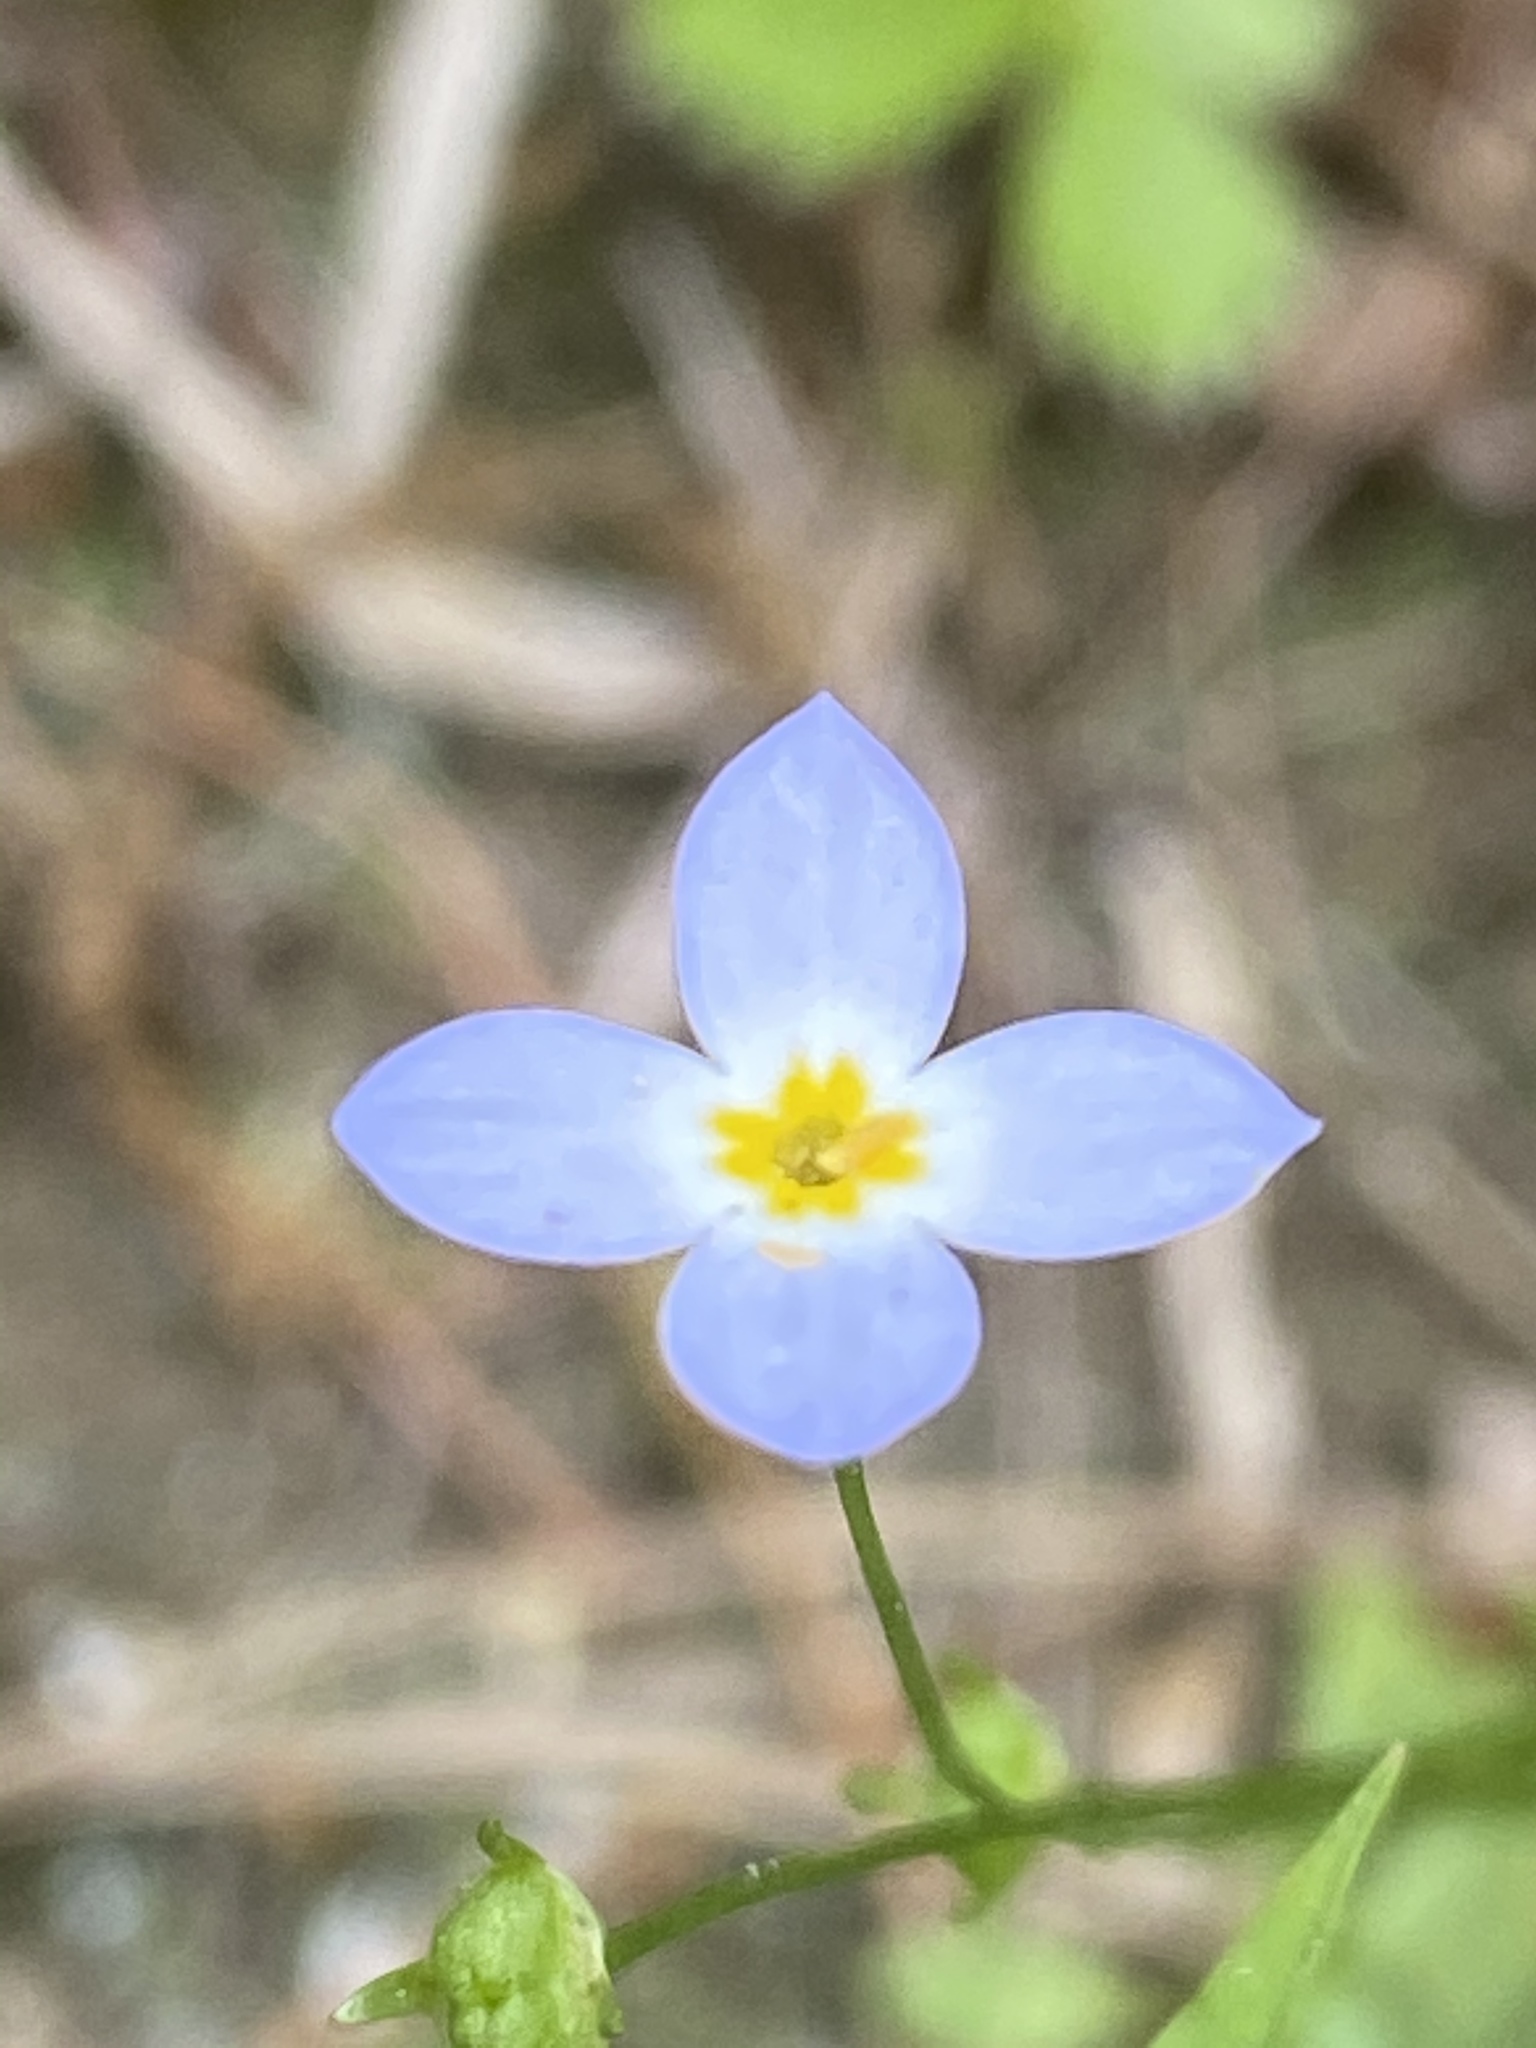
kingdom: Plantae
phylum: Tracheophyta
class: Magnoliopsida
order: Gentianales
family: Rubiaceae
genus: Houstonia
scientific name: Houstonia caerulea
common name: Bluets
